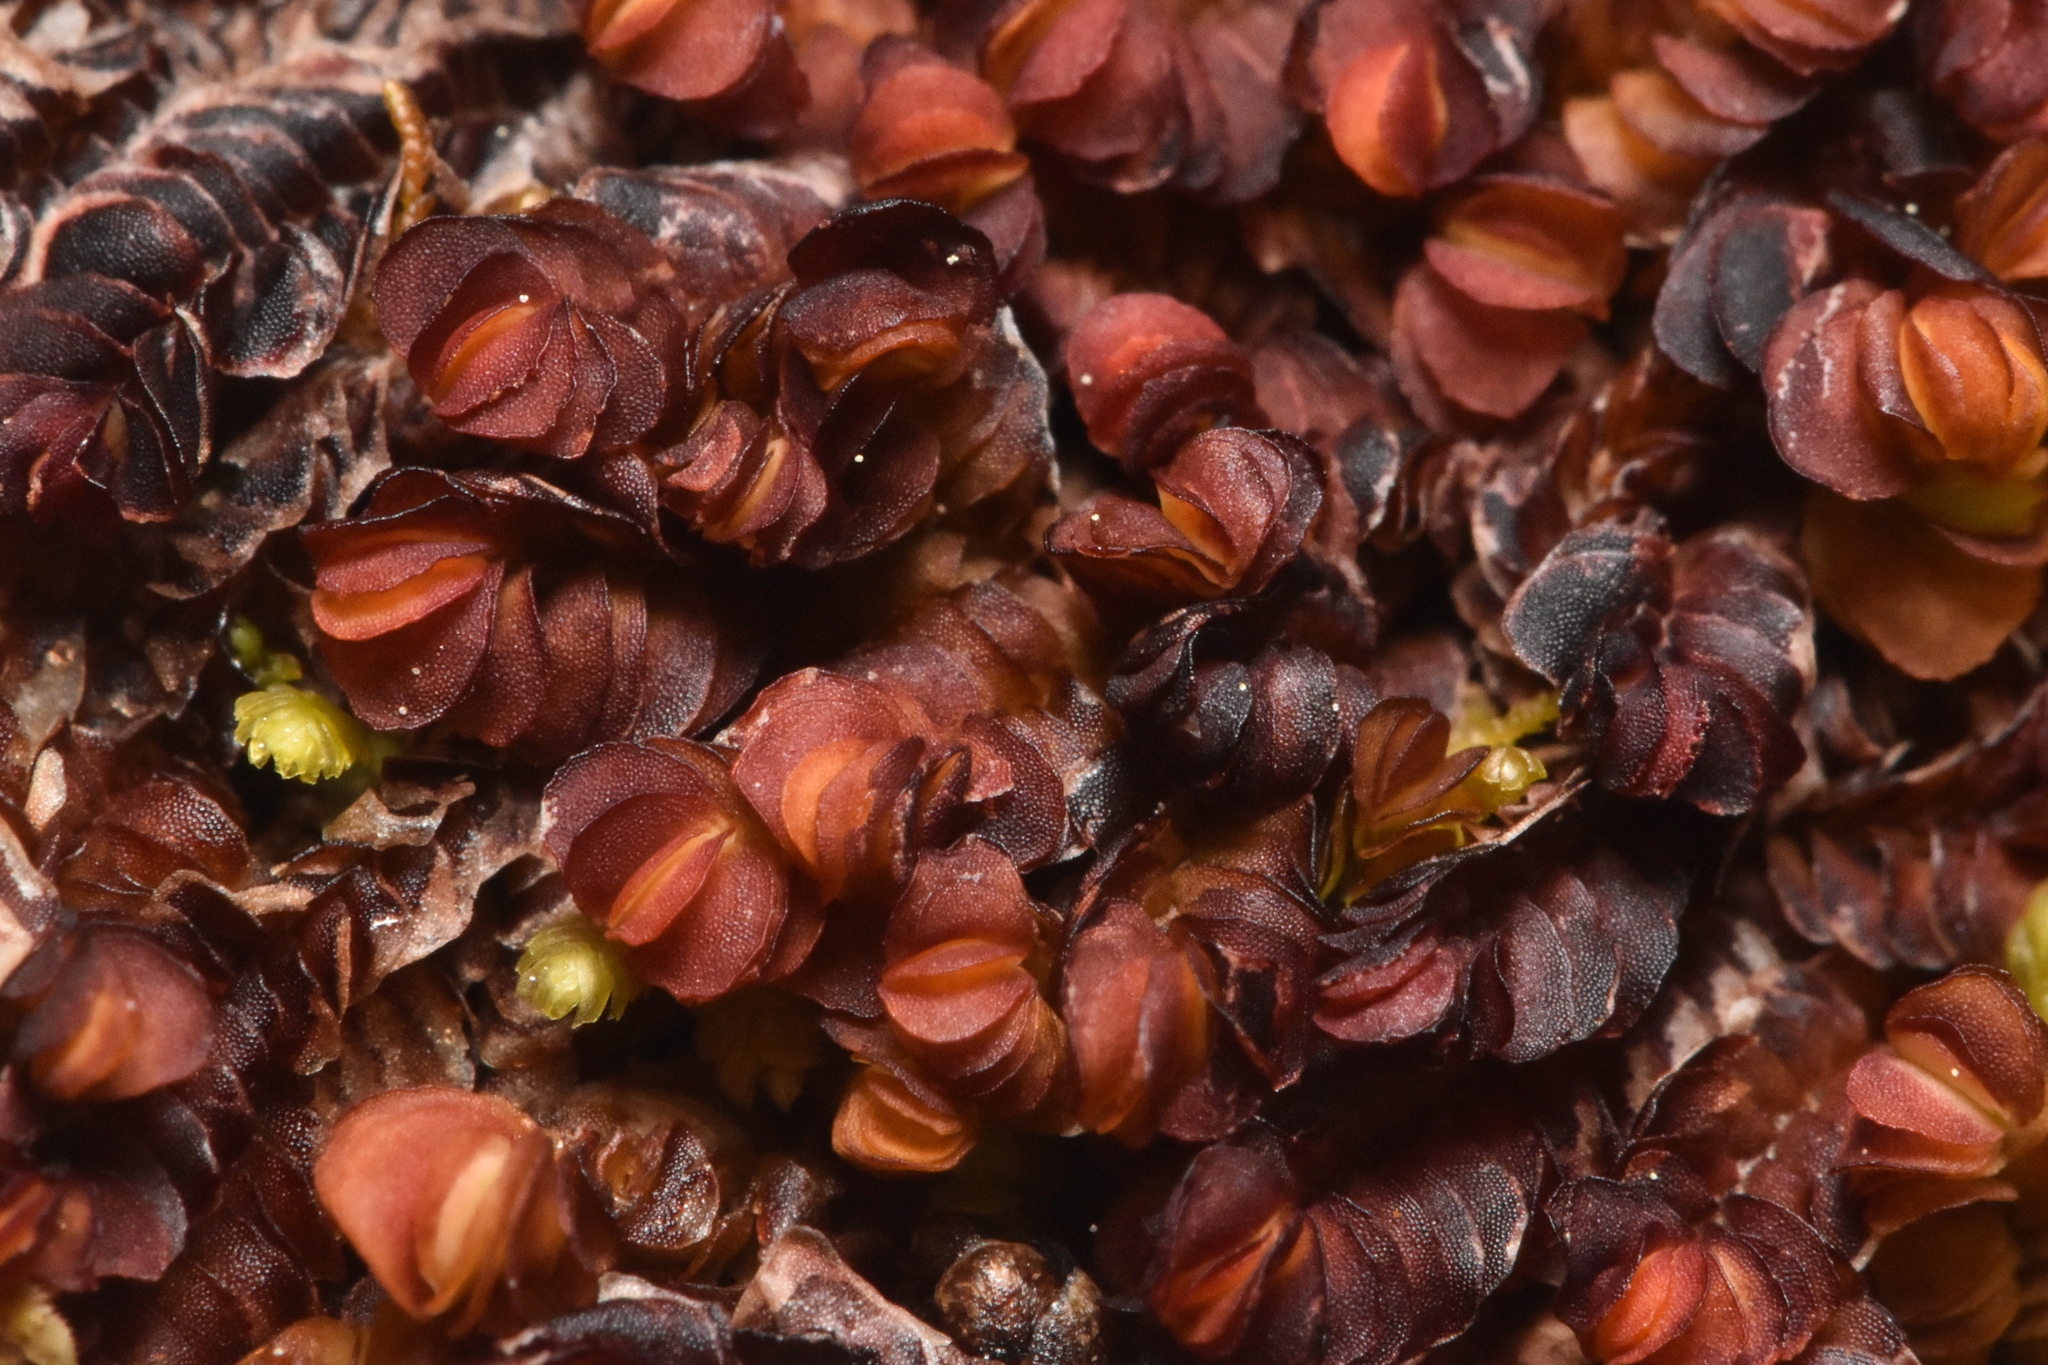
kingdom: Plantae
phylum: Marchantiophyta
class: Jungermanniopsida
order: Jungermanniales
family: Myliaceae
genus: Mylia
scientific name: Mylia taylorii
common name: Taylor s flapwort
